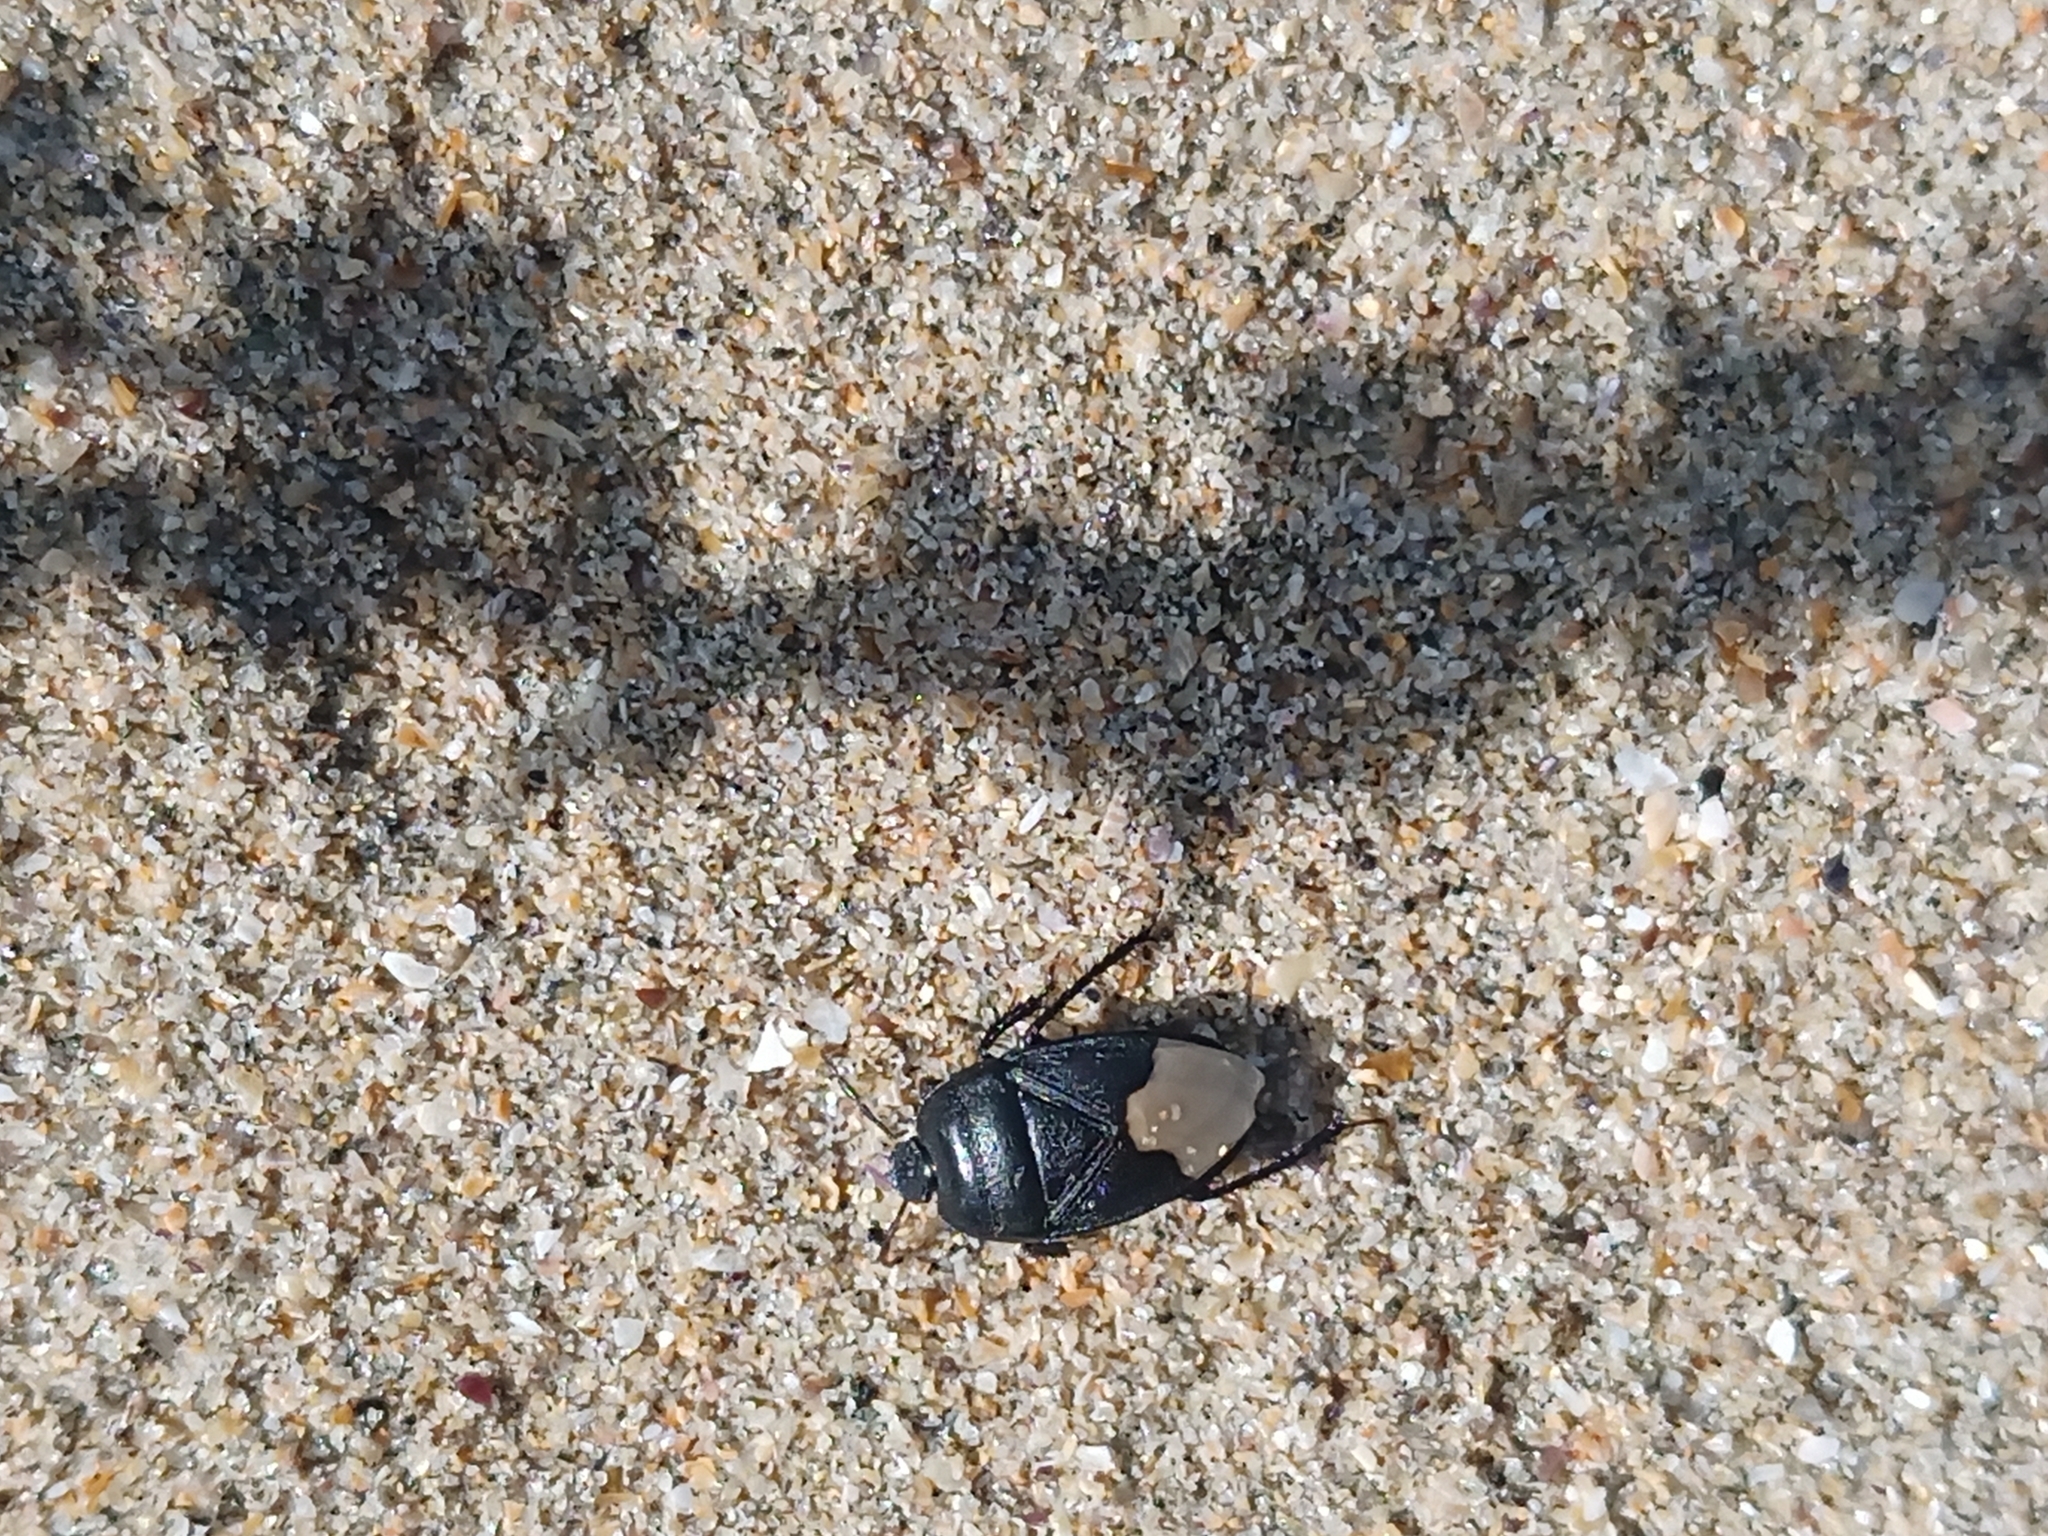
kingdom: Animalia
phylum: Arthropoda
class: Insecta
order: Hemiptera
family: Cydnidae
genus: Cydnus
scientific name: Cydnus aterrimus
